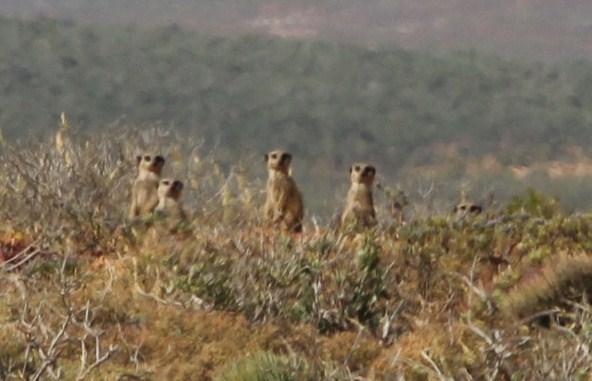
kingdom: Animalia
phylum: Chordata
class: Mammalia
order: Carnivora
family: Herpestidae
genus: Suricata
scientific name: Suricata suricatta
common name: Meerkat
